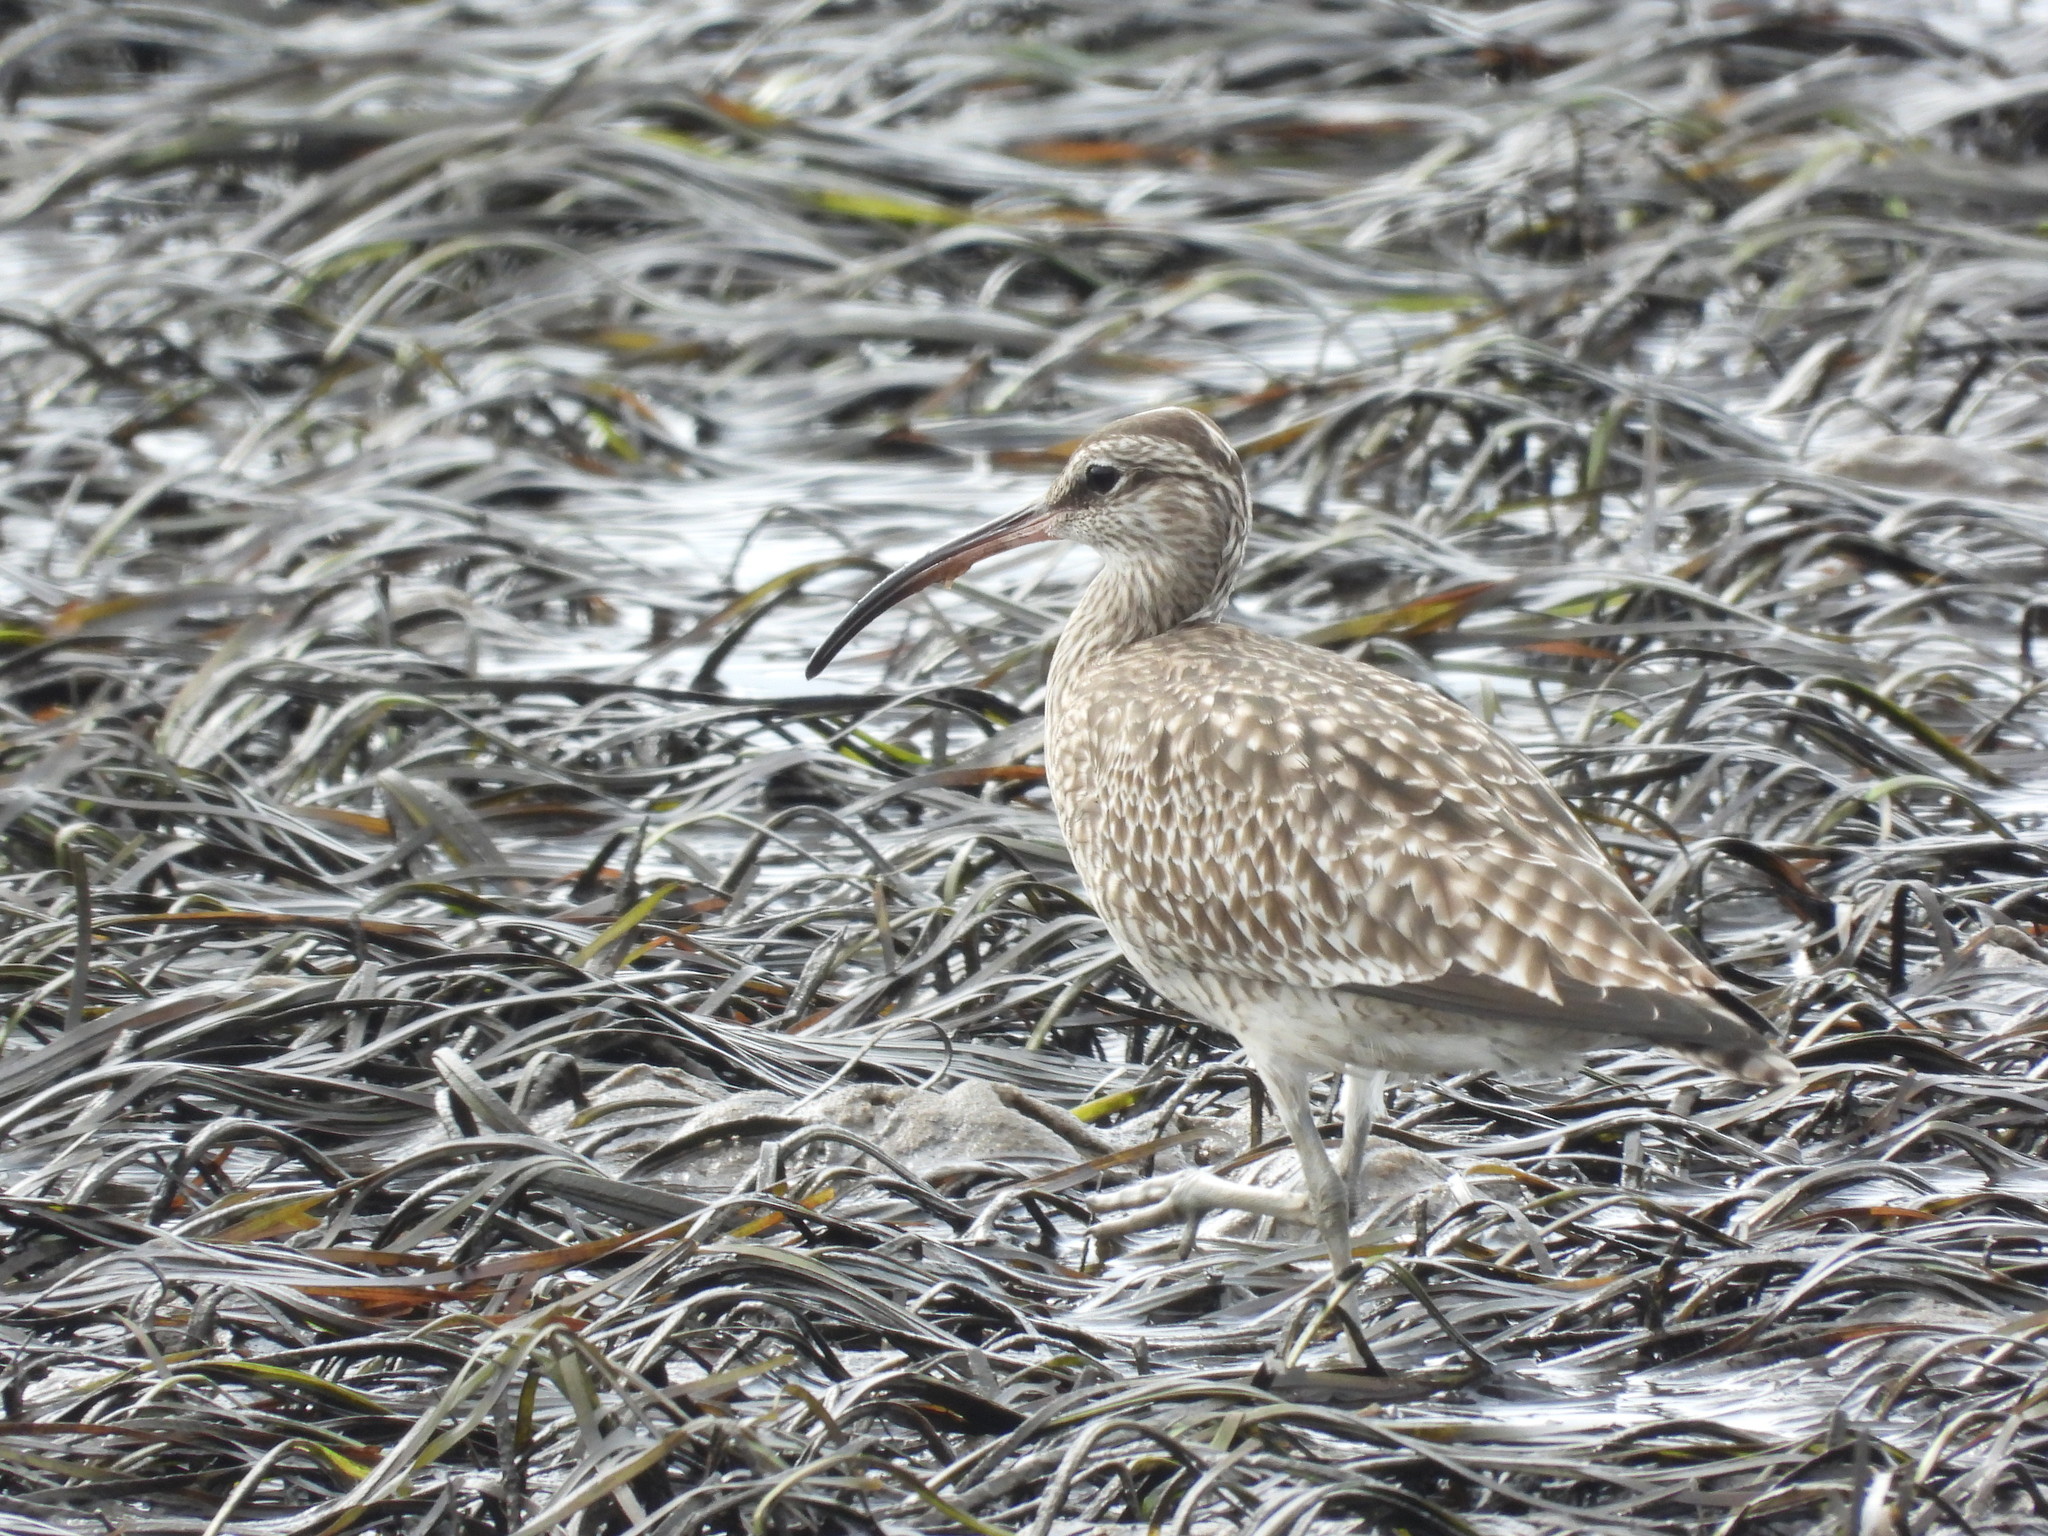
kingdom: Animalia
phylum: Chordata
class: Aves
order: Charadriiformes
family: Scolopacidae
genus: Numenius
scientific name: Numenius phaeopus
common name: Whimbrel
